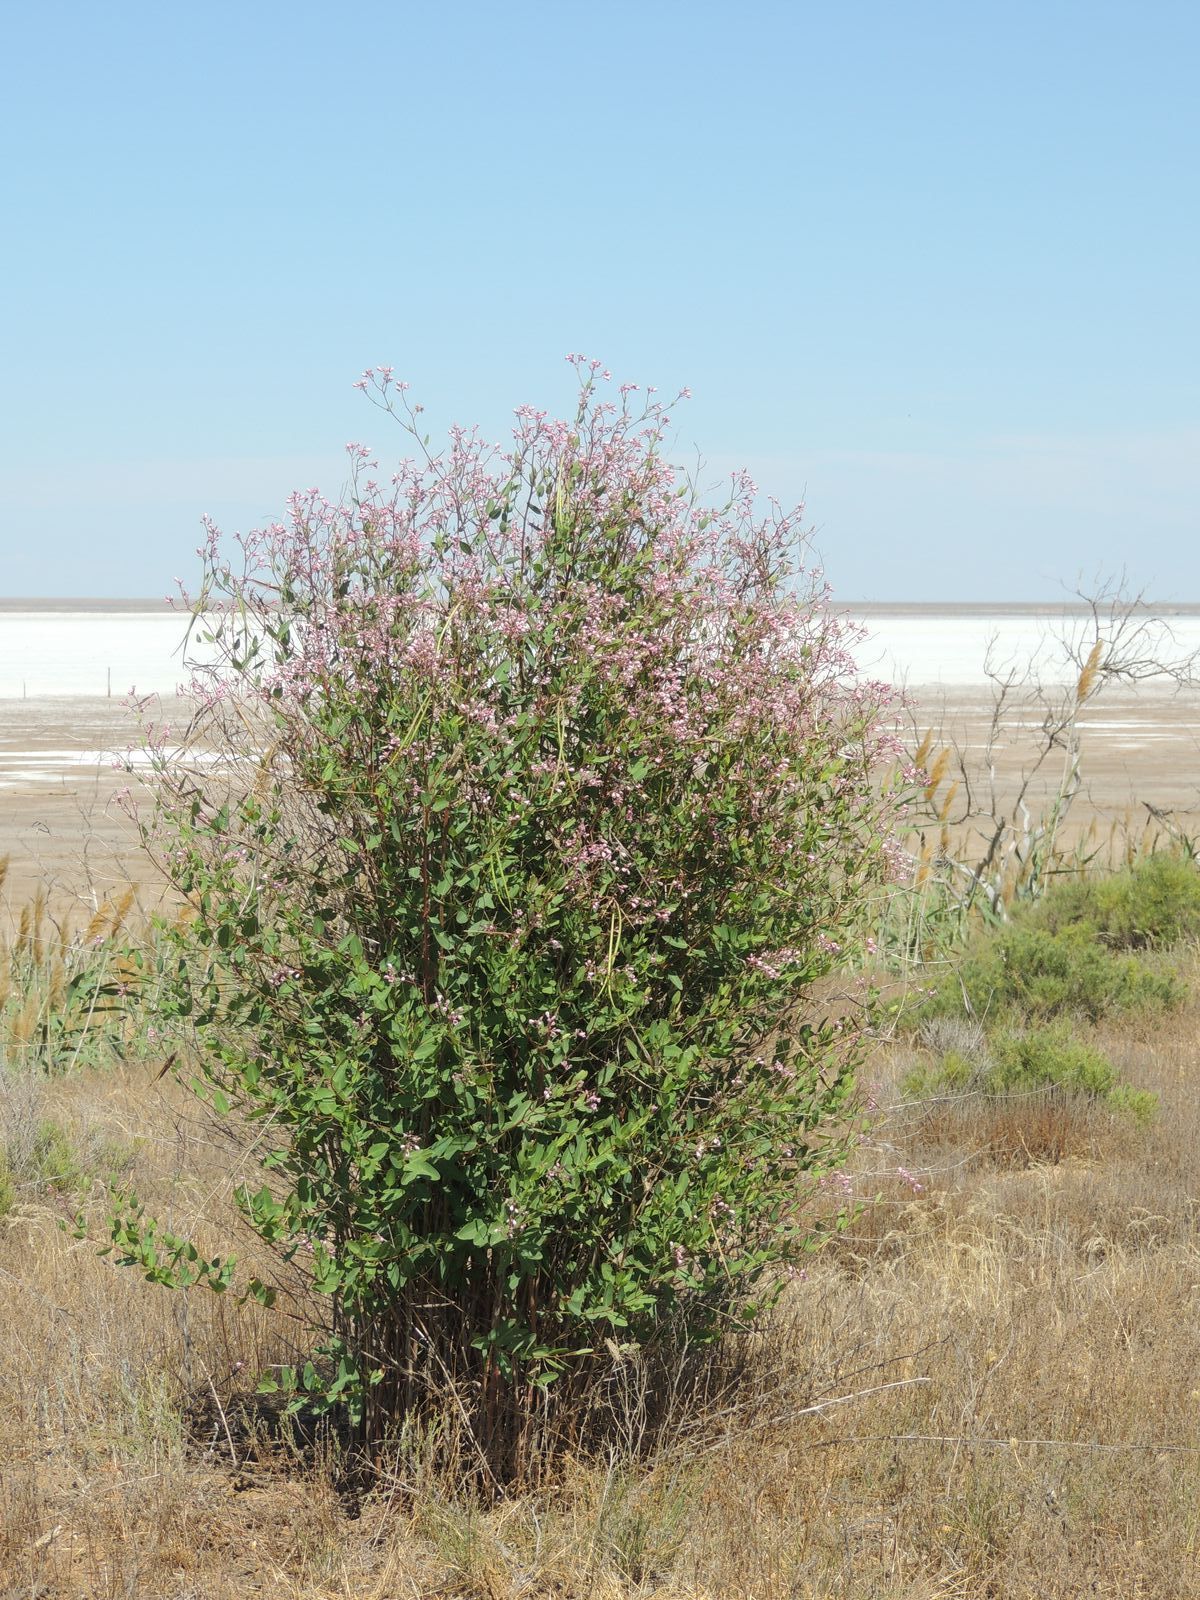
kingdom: Plantae
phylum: Tracheophyta
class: Magnoliopsida
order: Gentianales
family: Apocynaceae
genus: Poacynum
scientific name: Poacynum venetum
